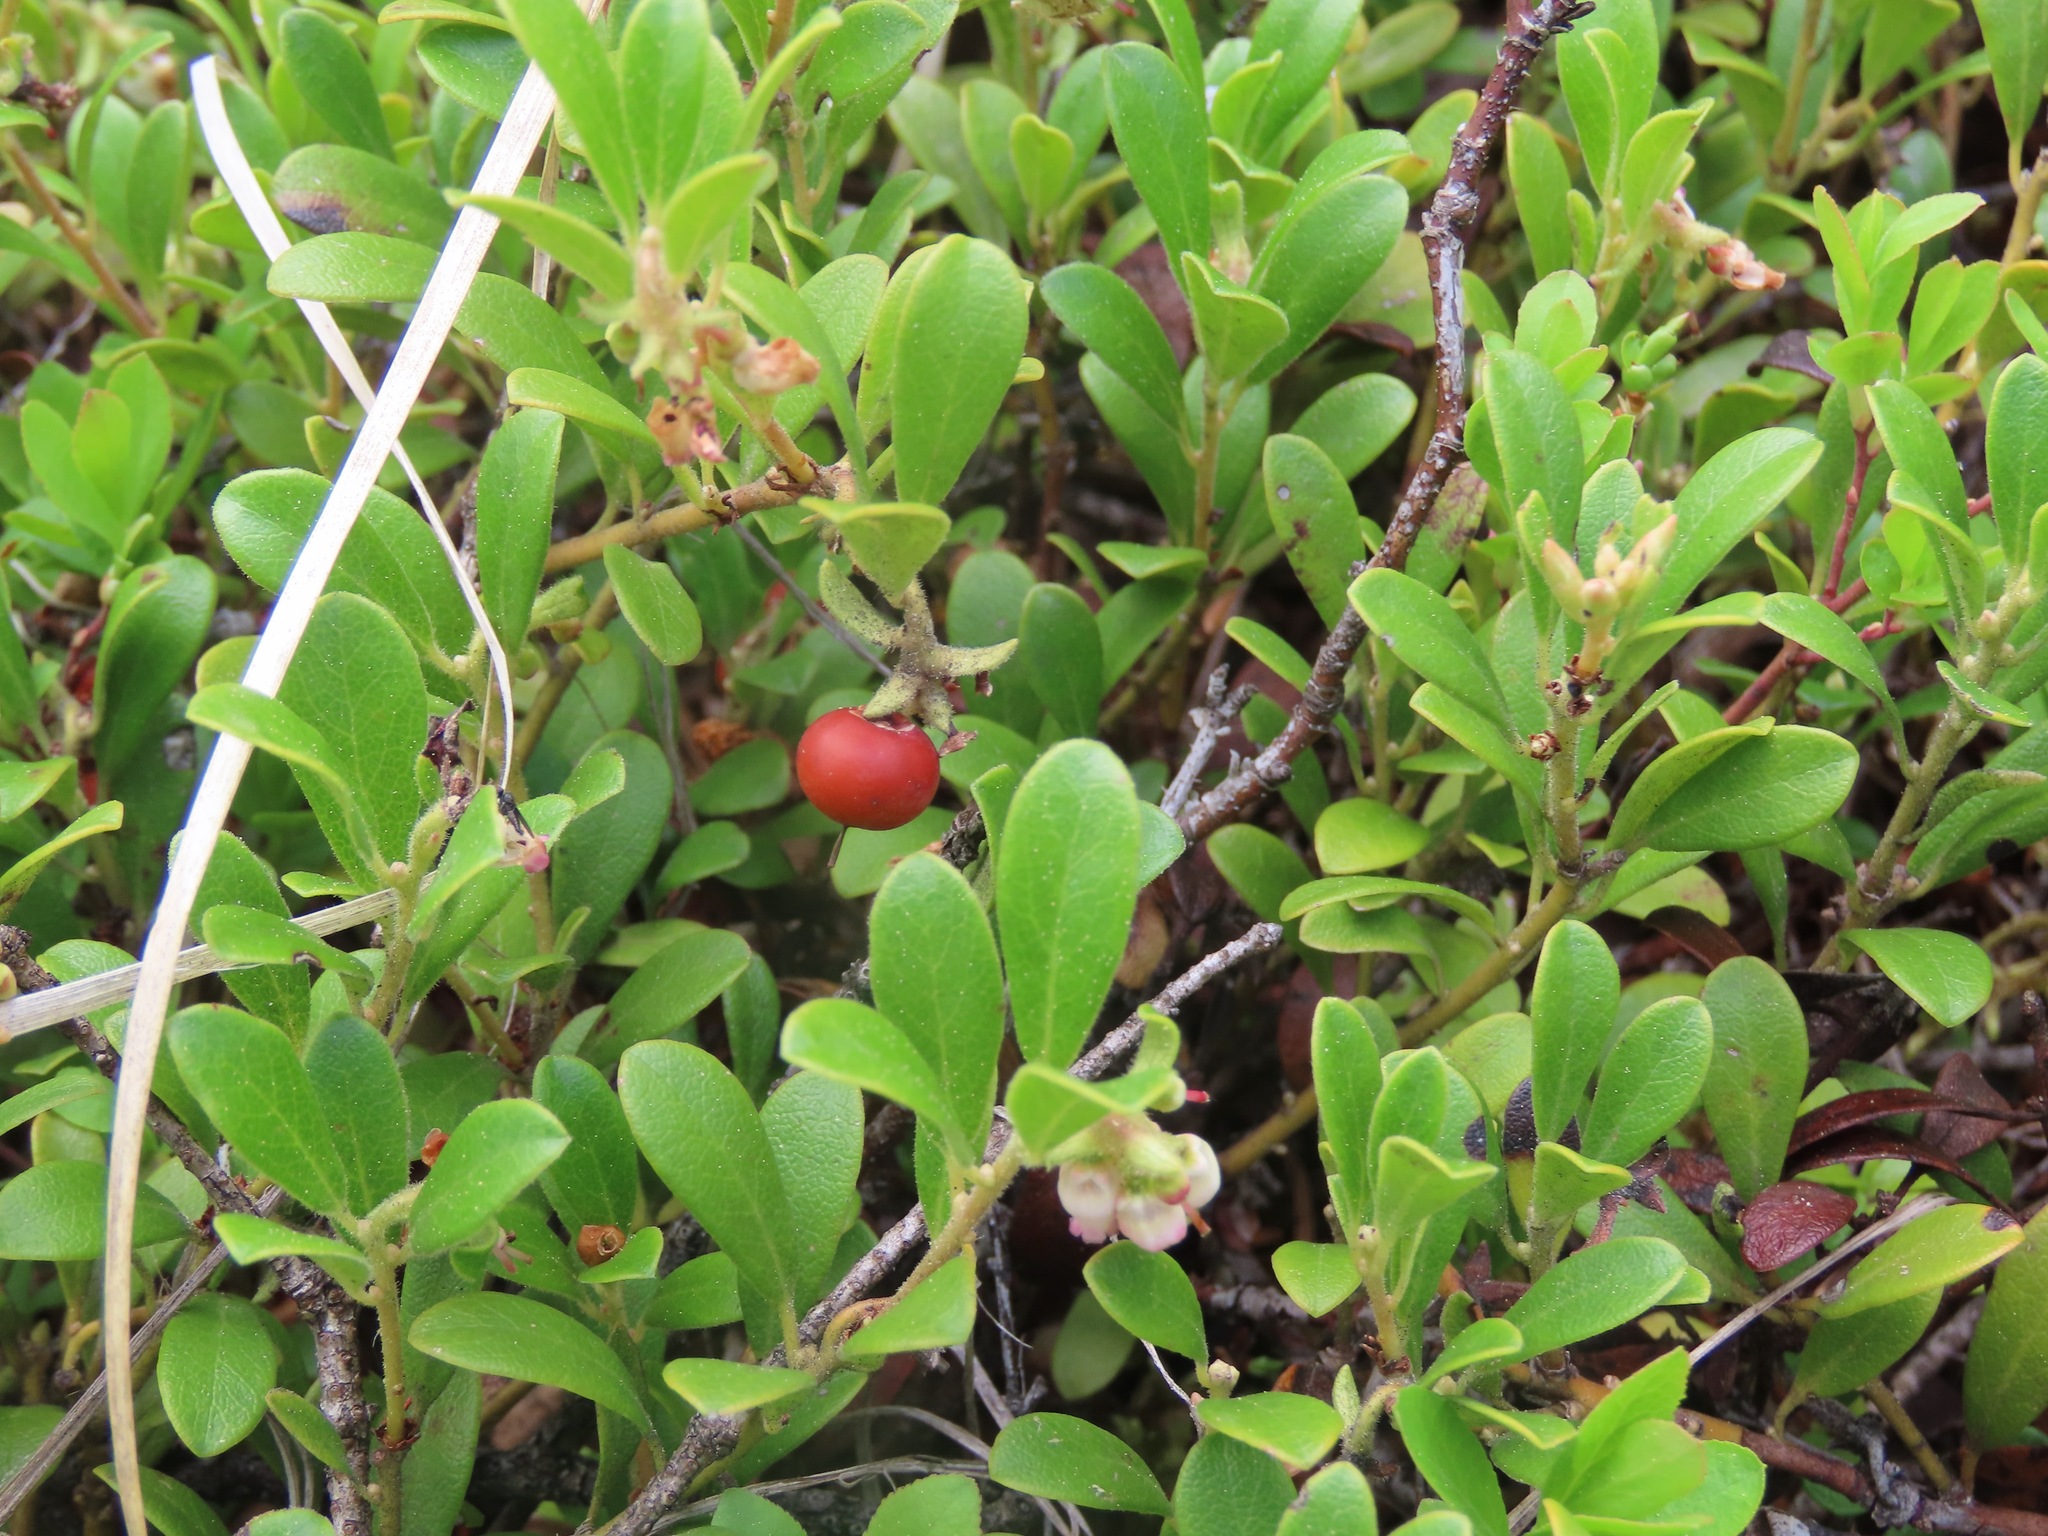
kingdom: Plantae
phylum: Tracheophyta
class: Magnoliopsida
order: Ericales
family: Ericaceae
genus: Arctostaphylos
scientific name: Arctostaphylos uva-ursi
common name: Bearberry
